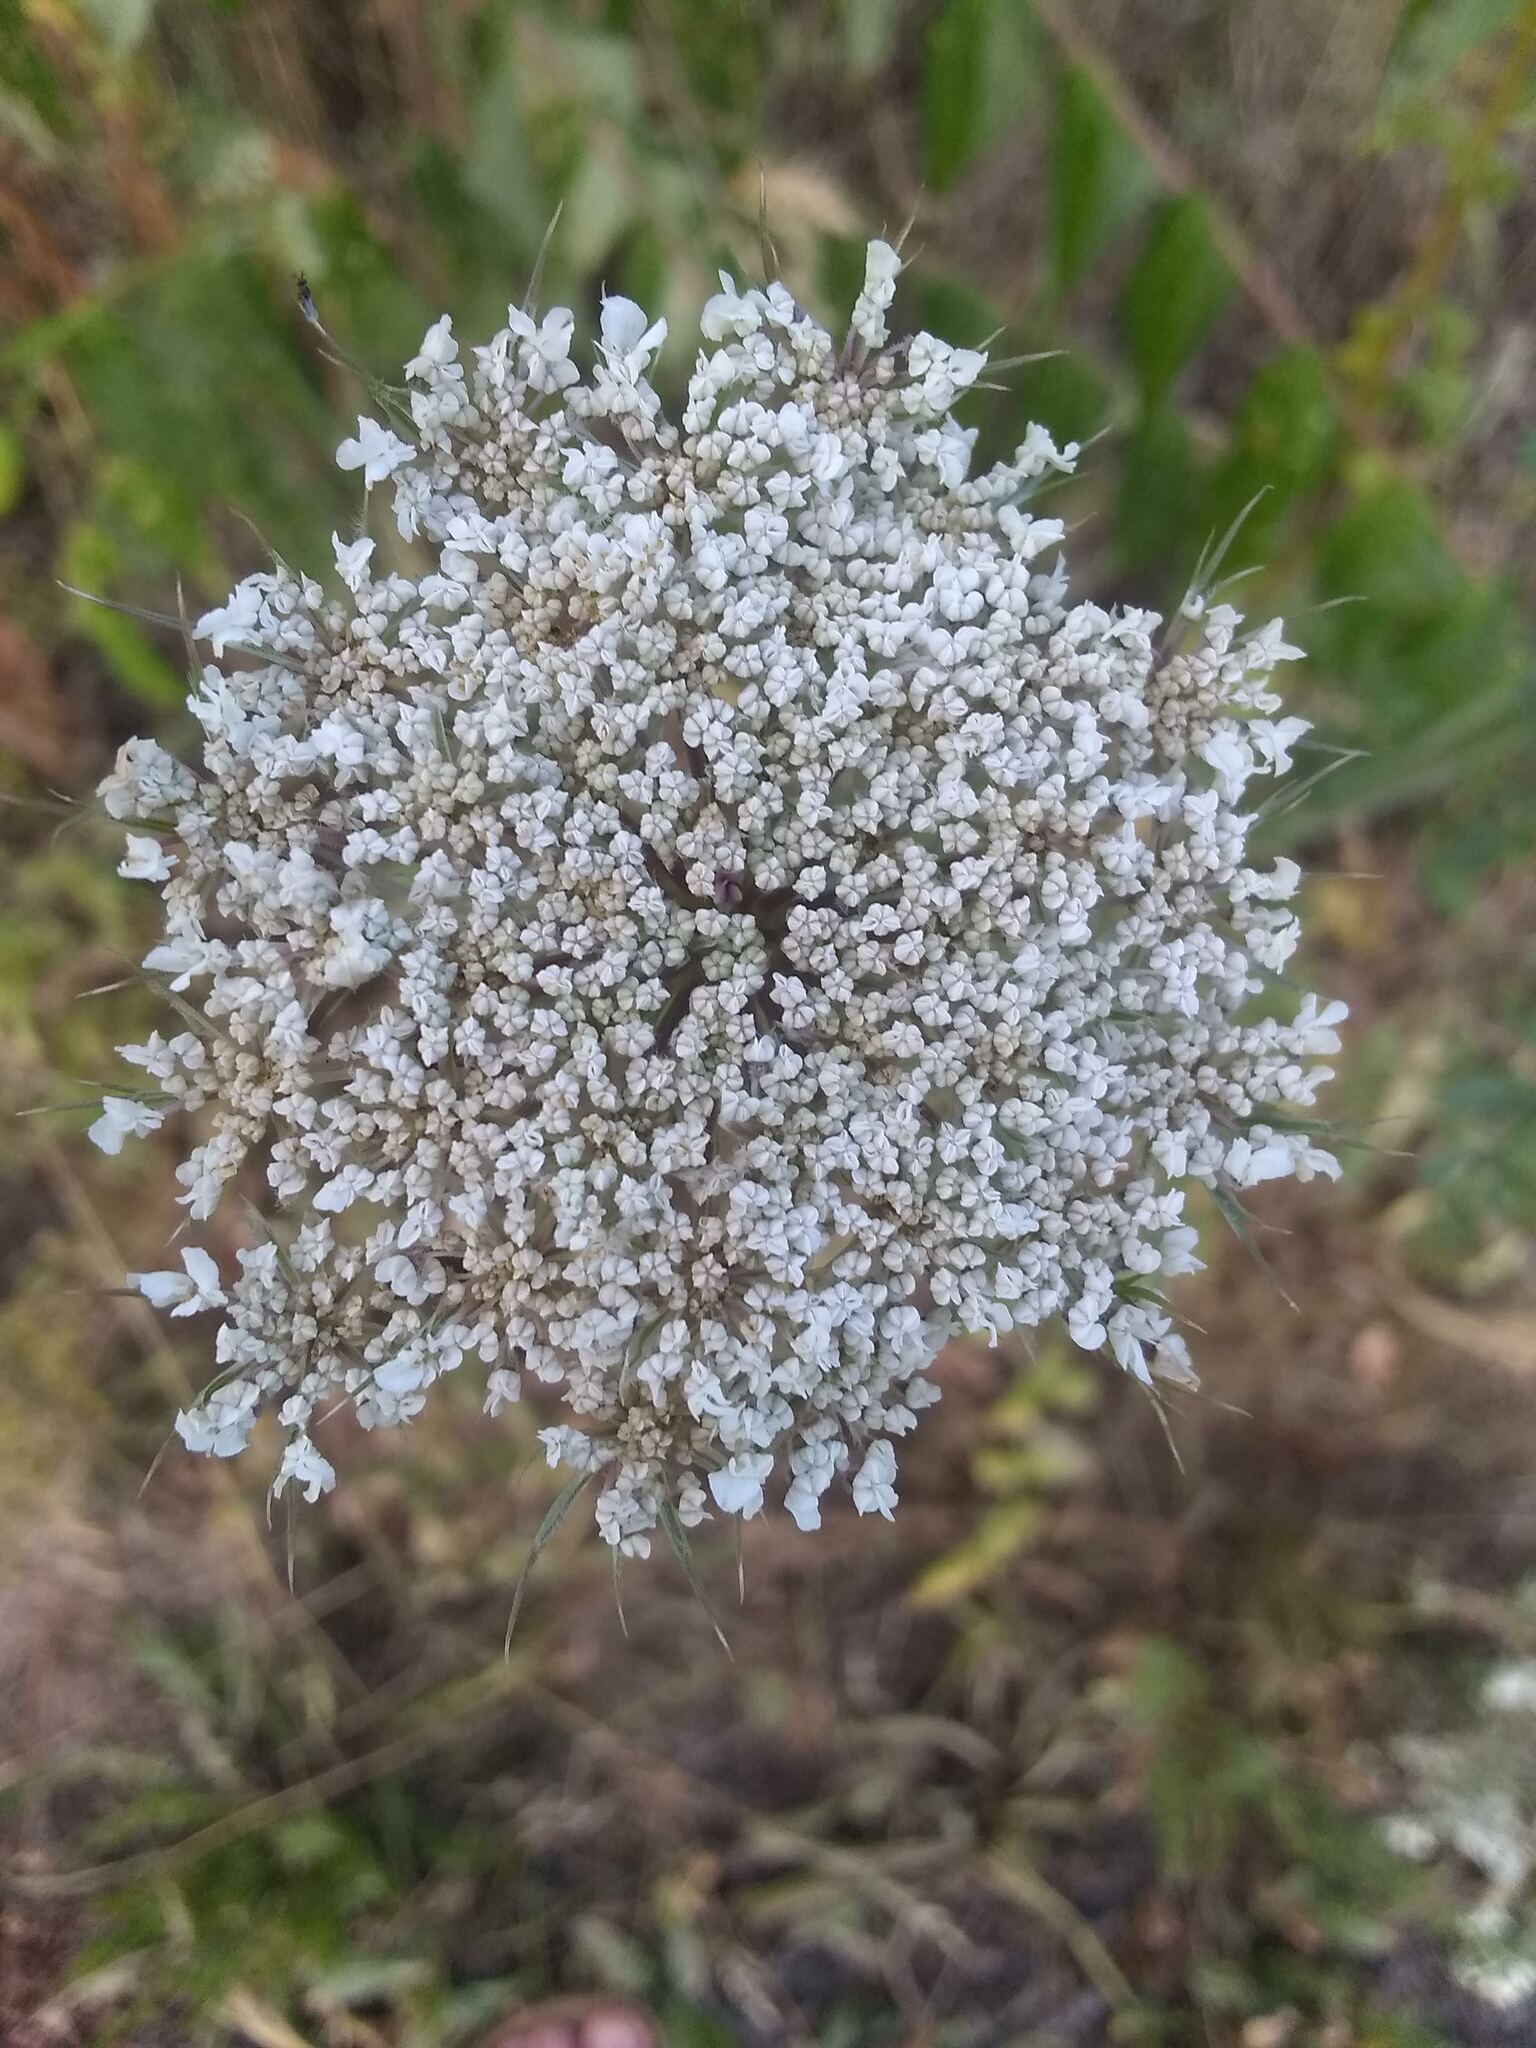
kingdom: Plantae
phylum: Tracheophyta
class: Magnoliopsida
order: Apiales
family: Apiaceae
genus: Daucus
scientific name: Daucus carota
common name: Wild carrot
